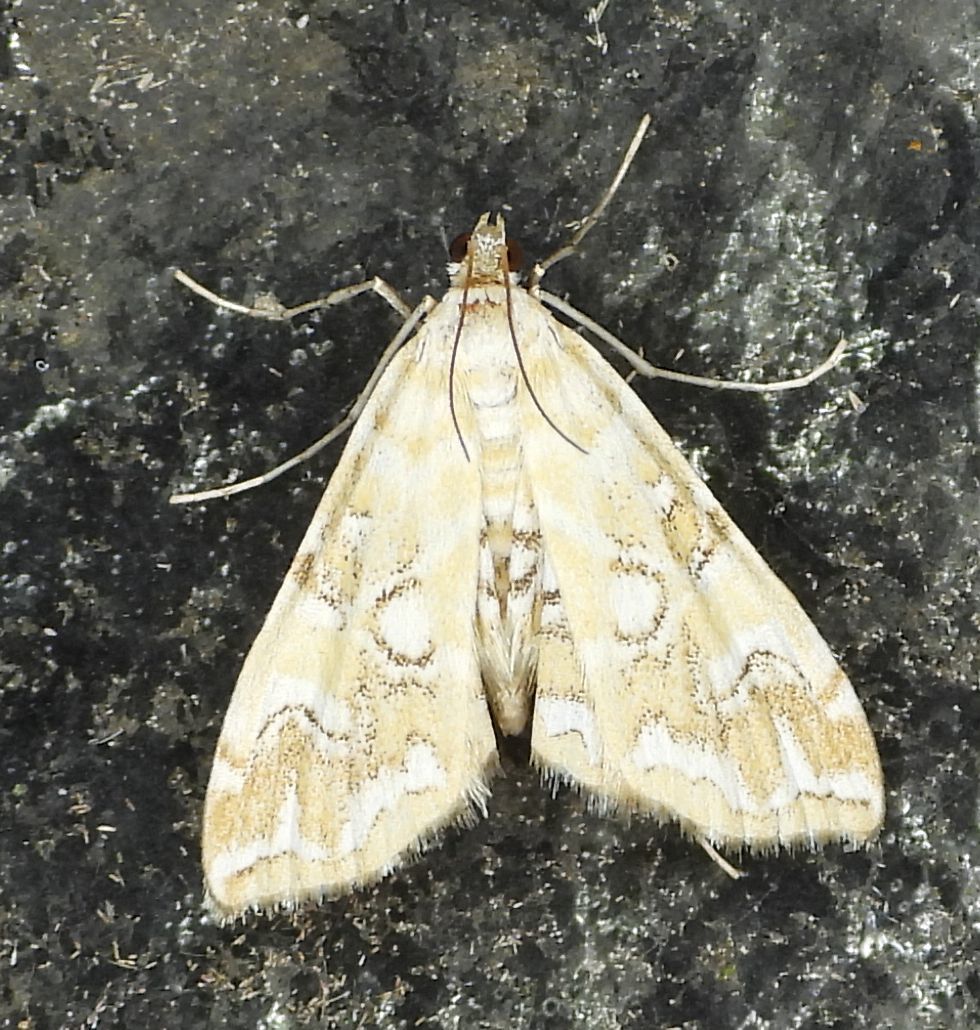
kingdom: Animalia
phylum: Arthropoda
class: Insecta
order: Lepidoptera
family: Crambidae
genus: Elophila
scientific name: Elophila icciusalis
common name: Pondside pyralid moth
